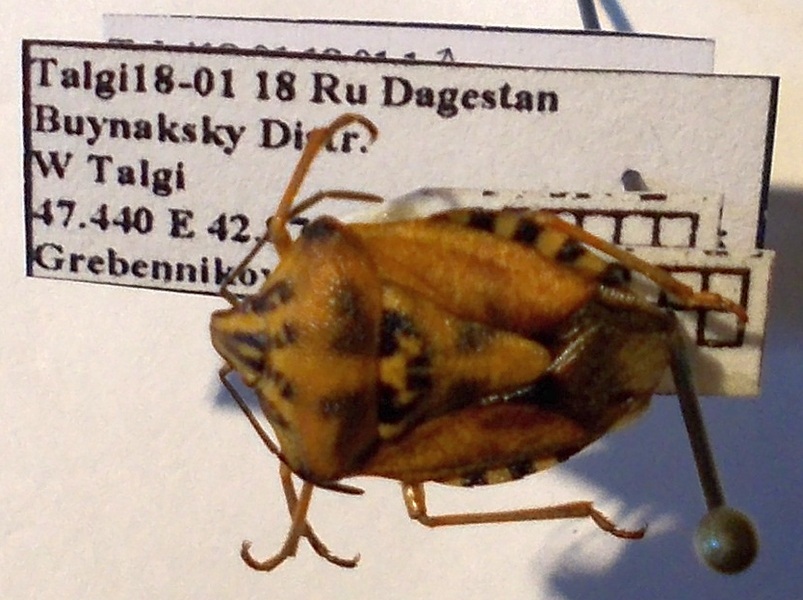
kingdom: Animalia
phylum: Arthropoda
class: Insecta
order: Hemiptera
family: Pentatomidae
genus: Carpocoris
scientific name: Carpocoris purpureipennis
